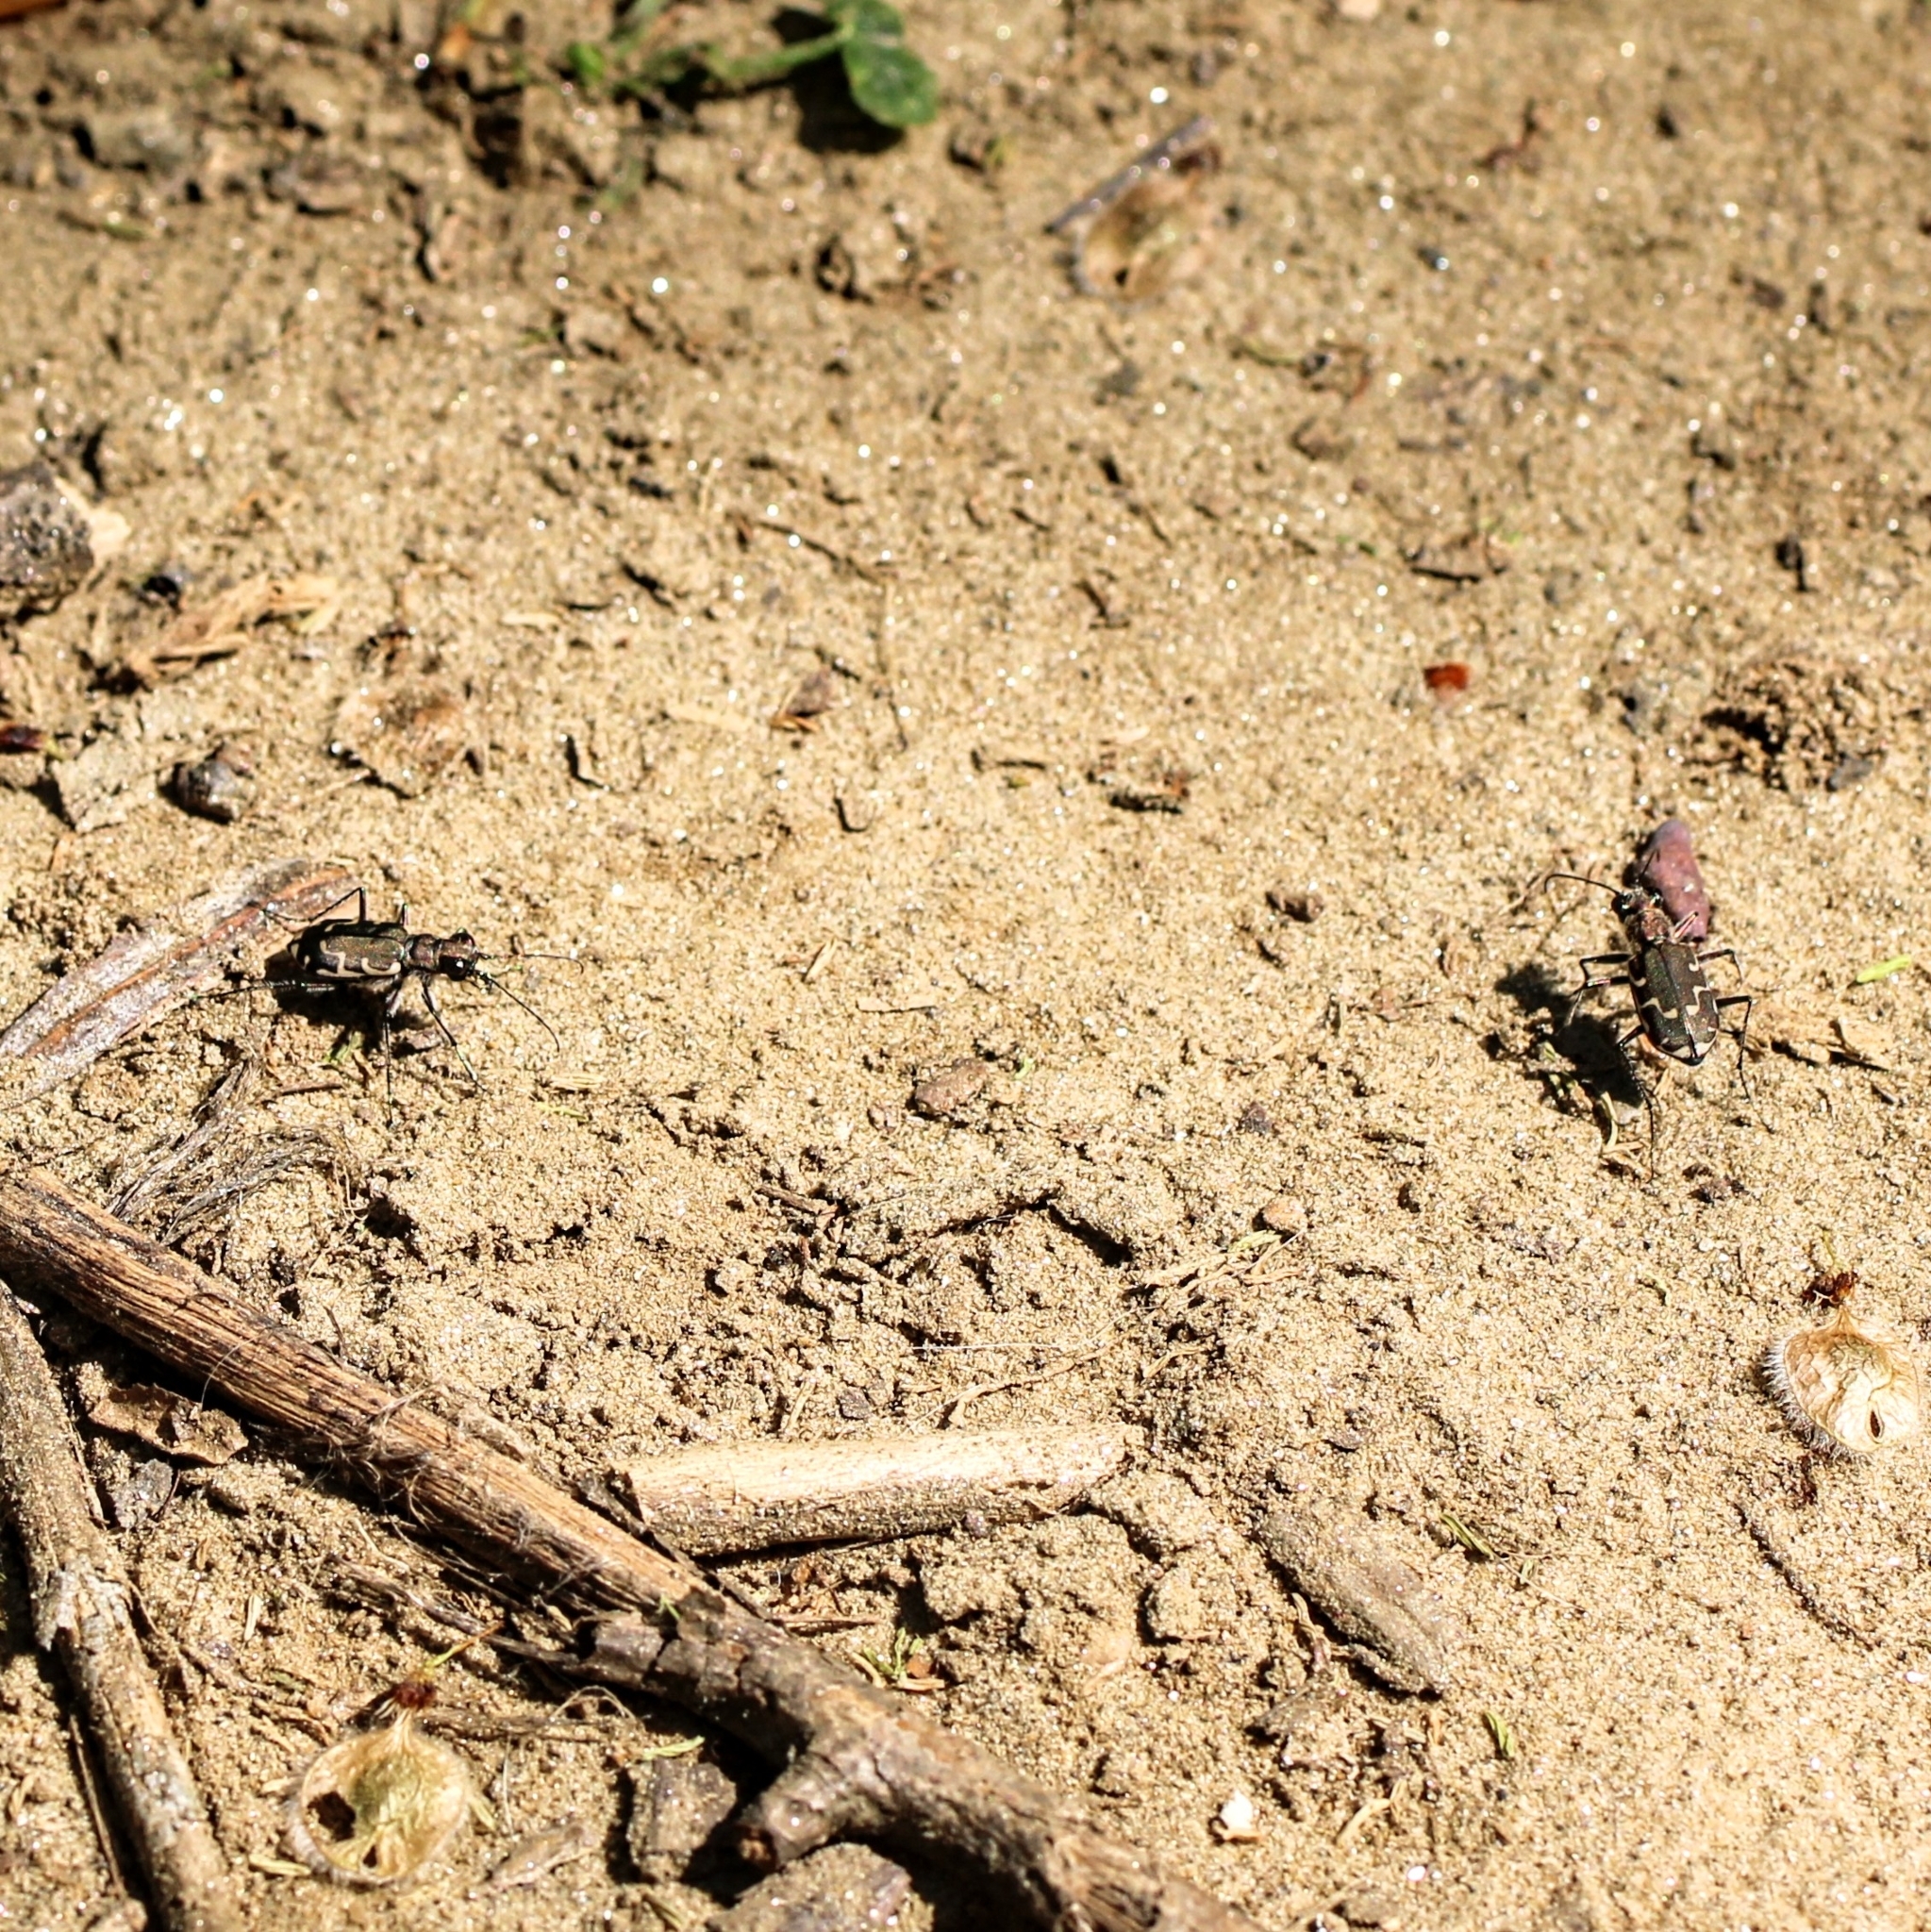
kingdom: Animalia
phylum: Arthropoda
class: Insecta
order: Coleoptera
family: Carabidae
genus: Cicindela
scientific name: Cicindela repanda
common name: Bronzed tiger beetle
